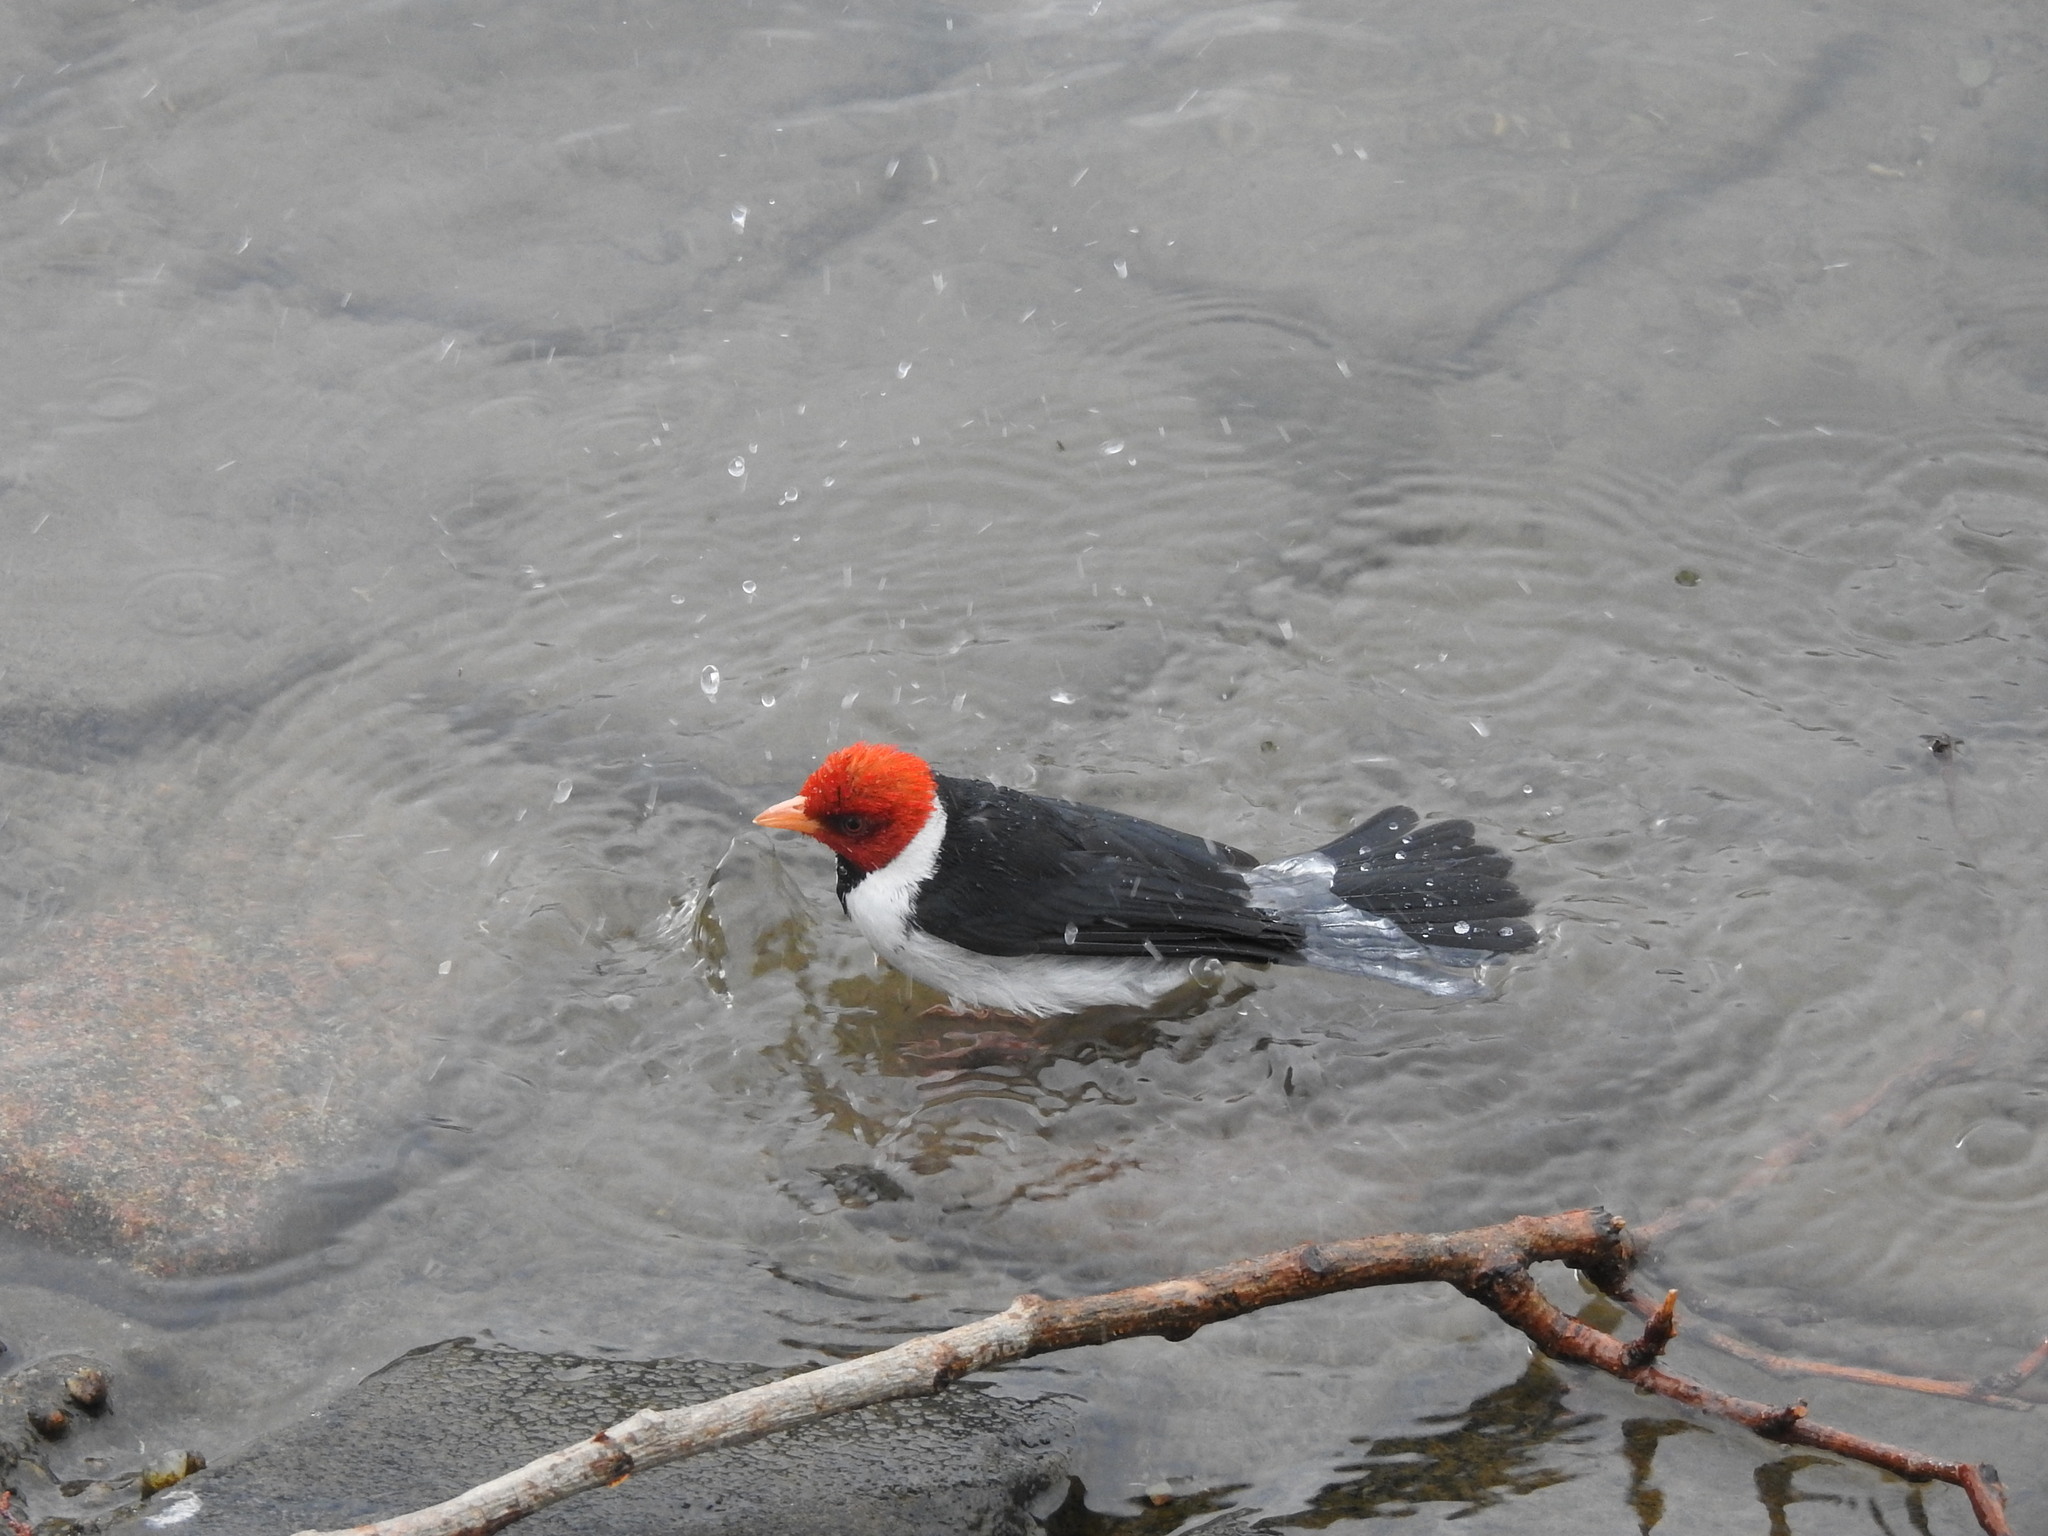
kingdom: Animalia
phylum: Chordata
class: Aves
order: Passeriformes
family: Thraupidae
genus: Paroaria
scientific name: Paroaria capitata
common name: Yellow-billed cardinal
